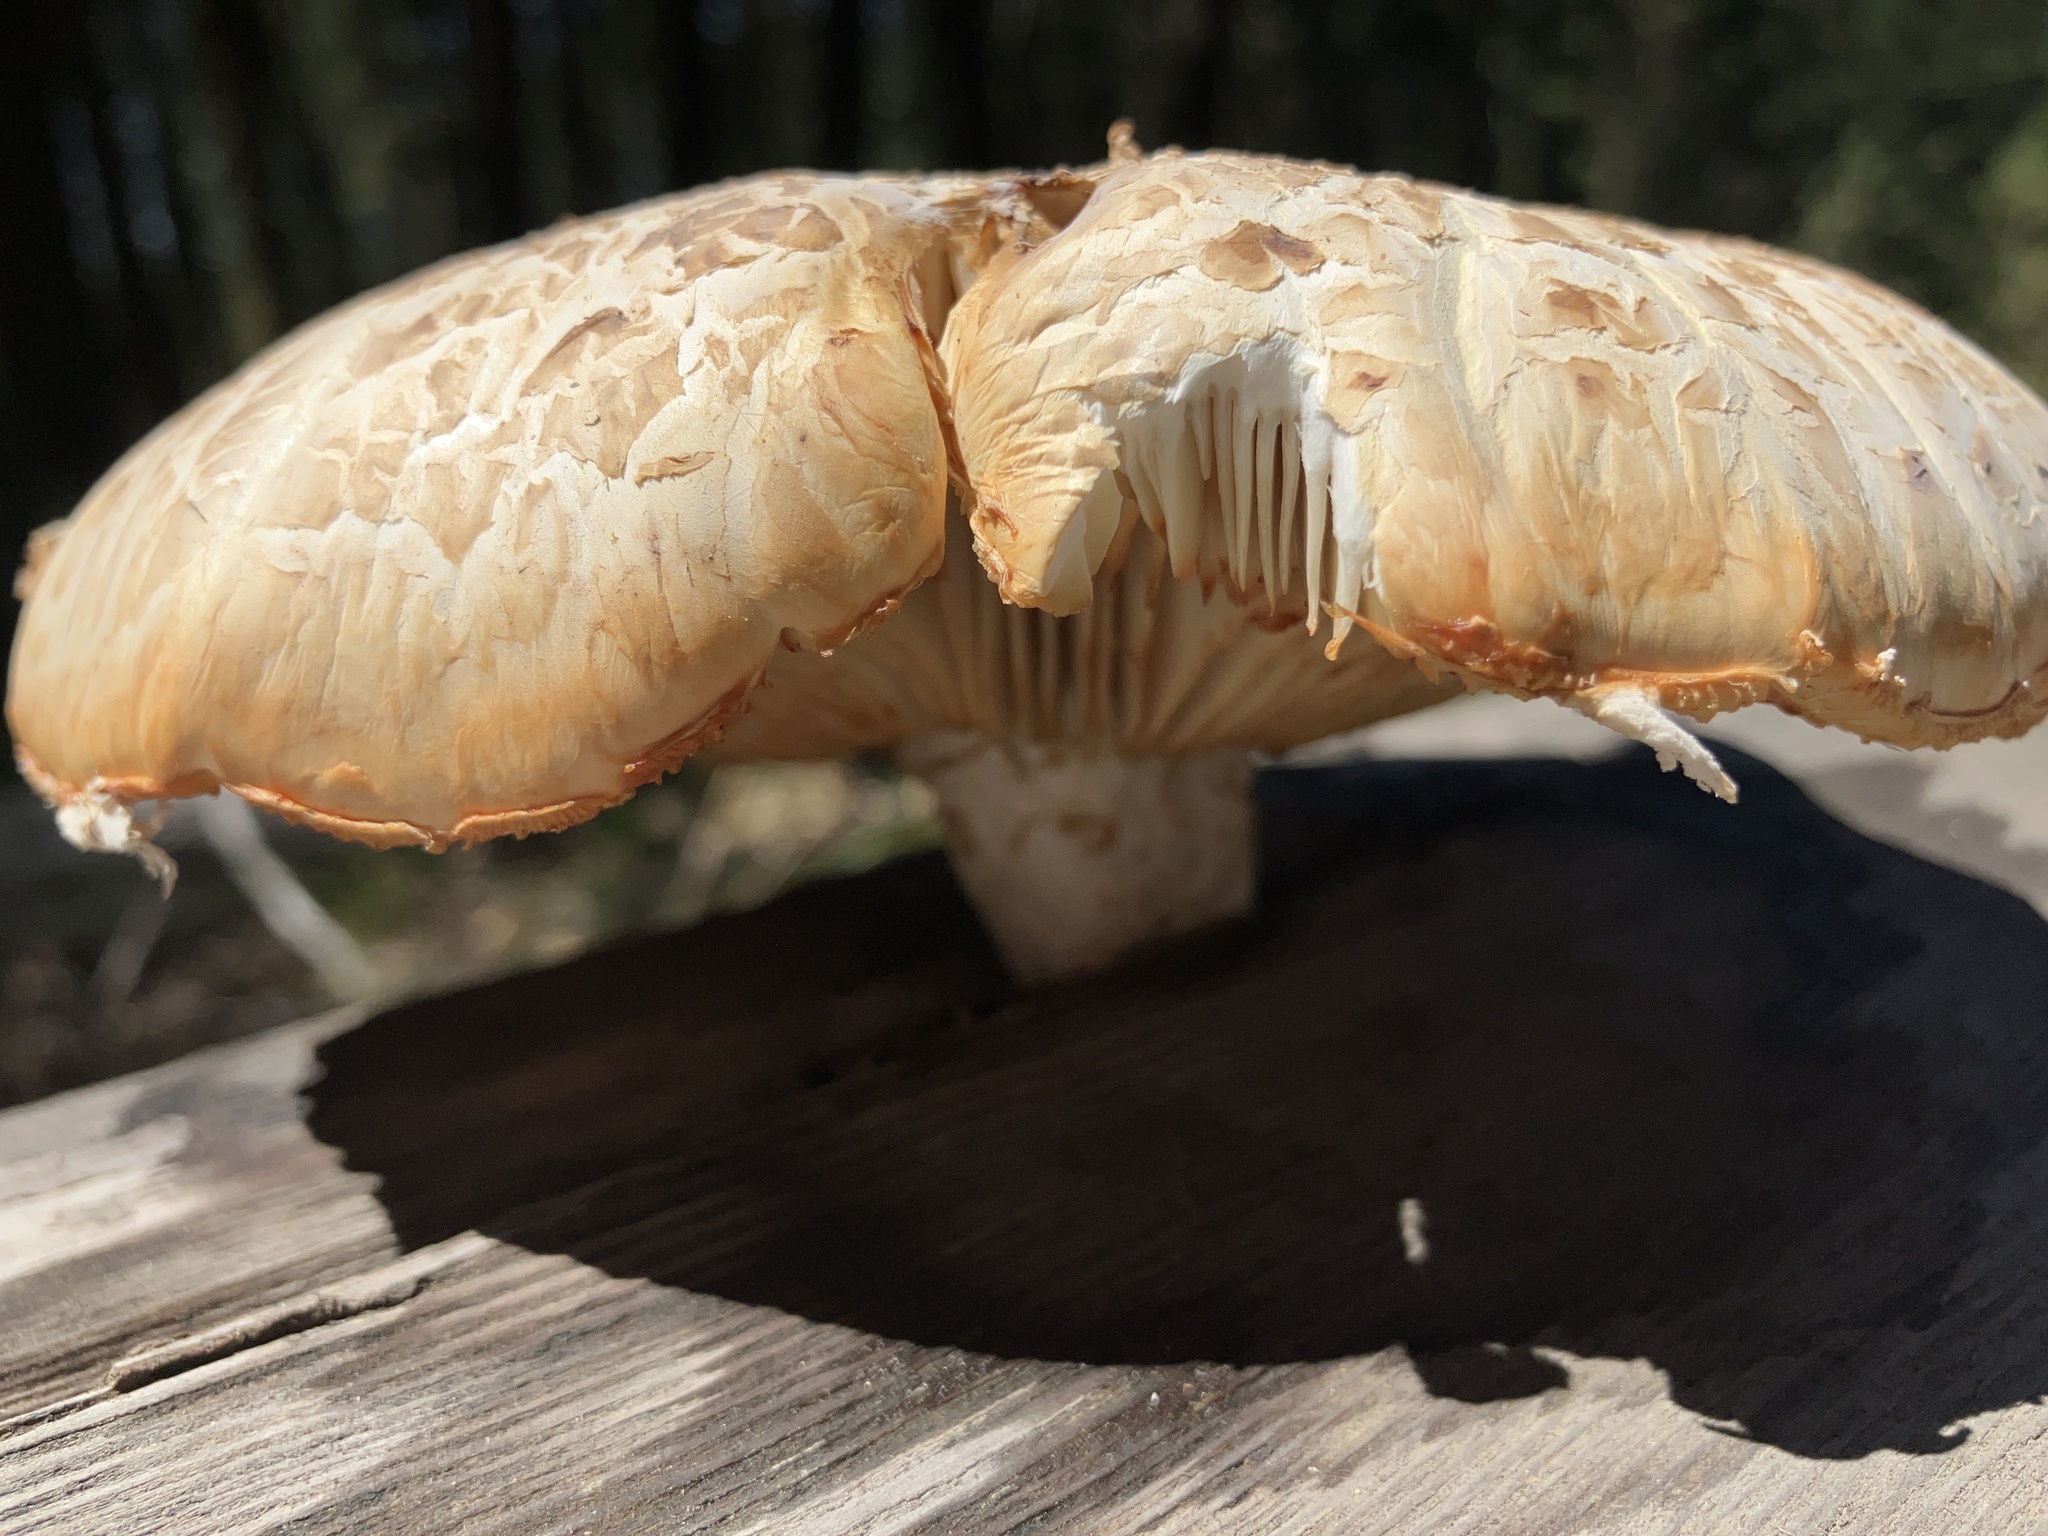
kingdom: Fungi
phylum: Basidiomycota
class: Agaricomycetes
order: Gloeophyllales
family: Gloeophyllaceae
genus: Neolentinus
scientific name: Neolentinus ponderosus
